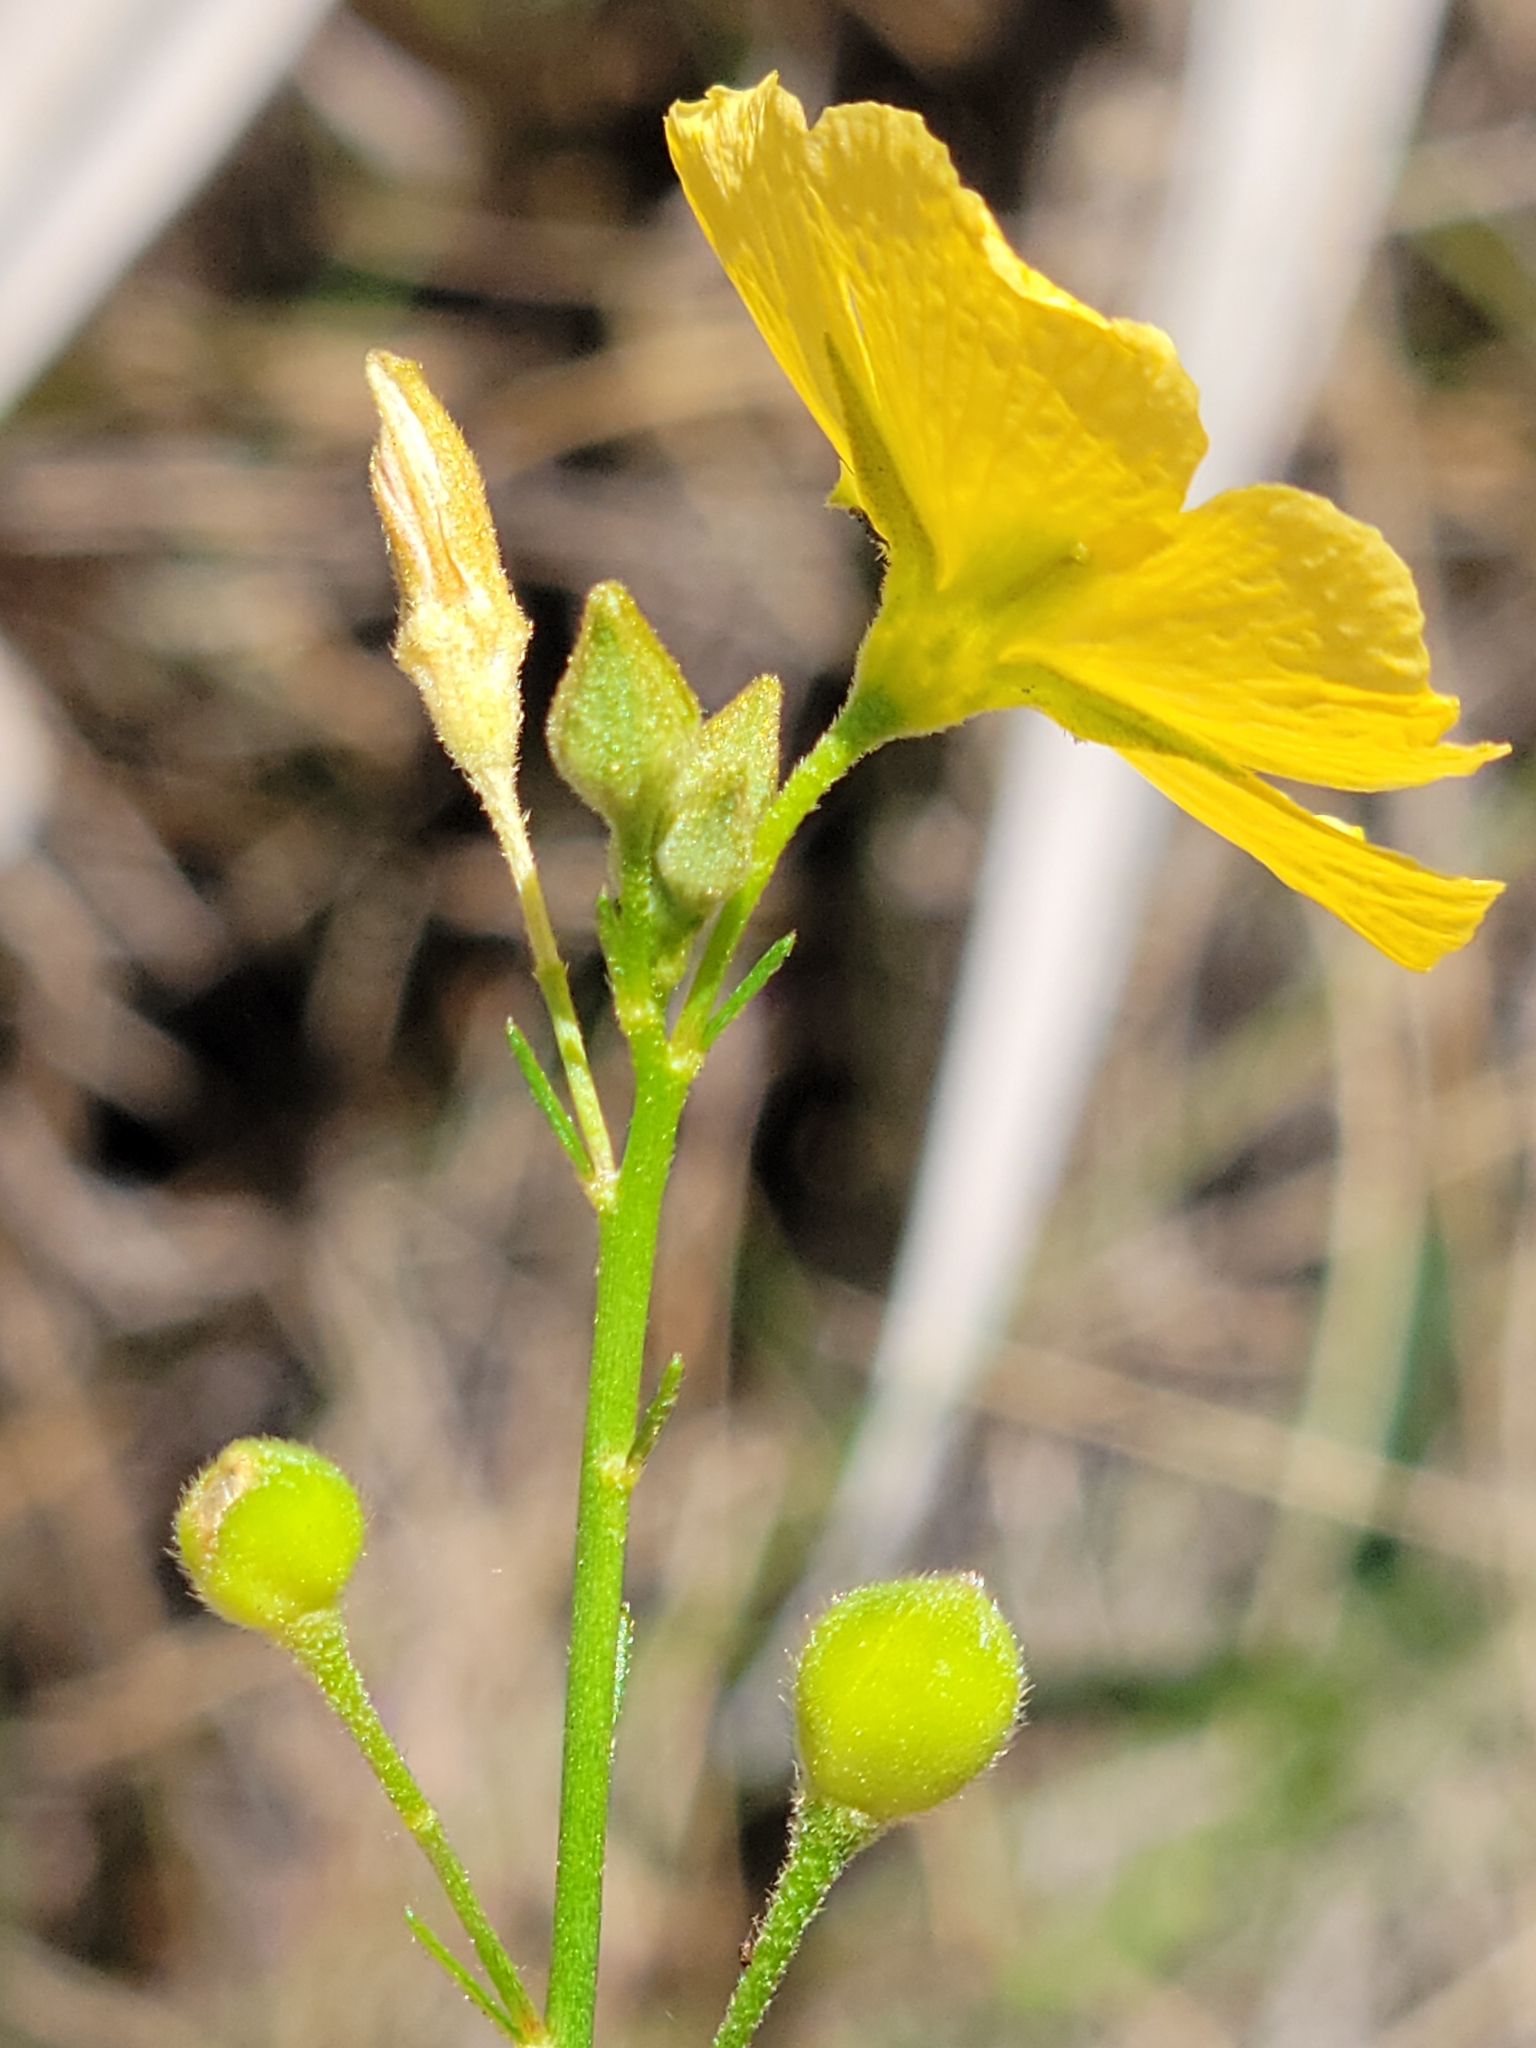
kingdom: Plantae
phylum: Tracheophyta
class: Magnoliopsida
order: Malpighiales
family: Turneraceae
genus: Piriqueta
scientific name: Piriqueta cistoides
